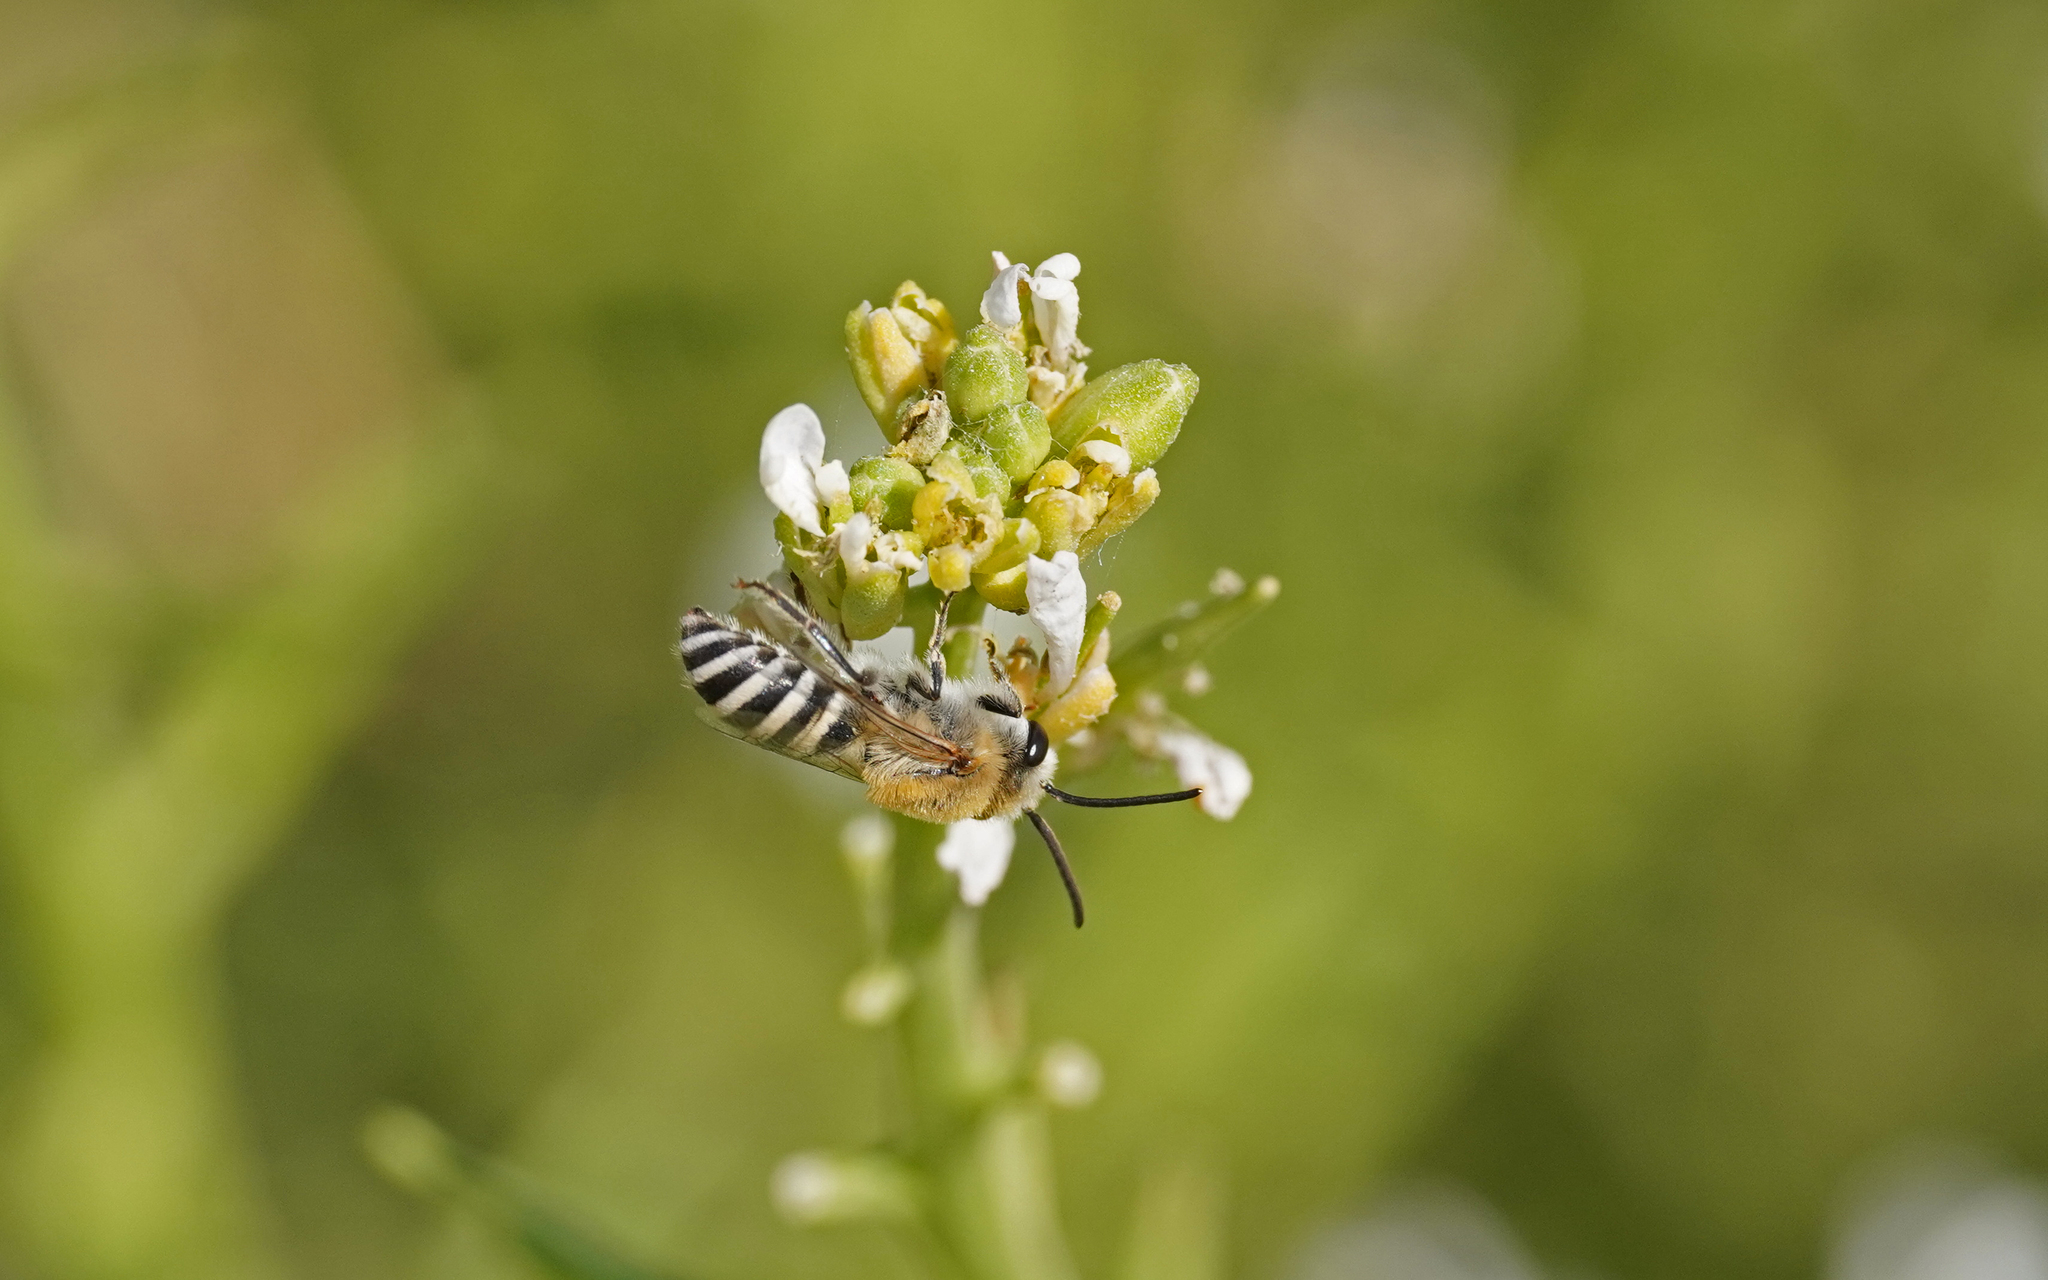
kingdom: Animalia
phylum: Arthropoda
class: Insecta
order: Hymenoptera
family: Colletidae
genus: Colletes
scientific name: Colletes perezi
